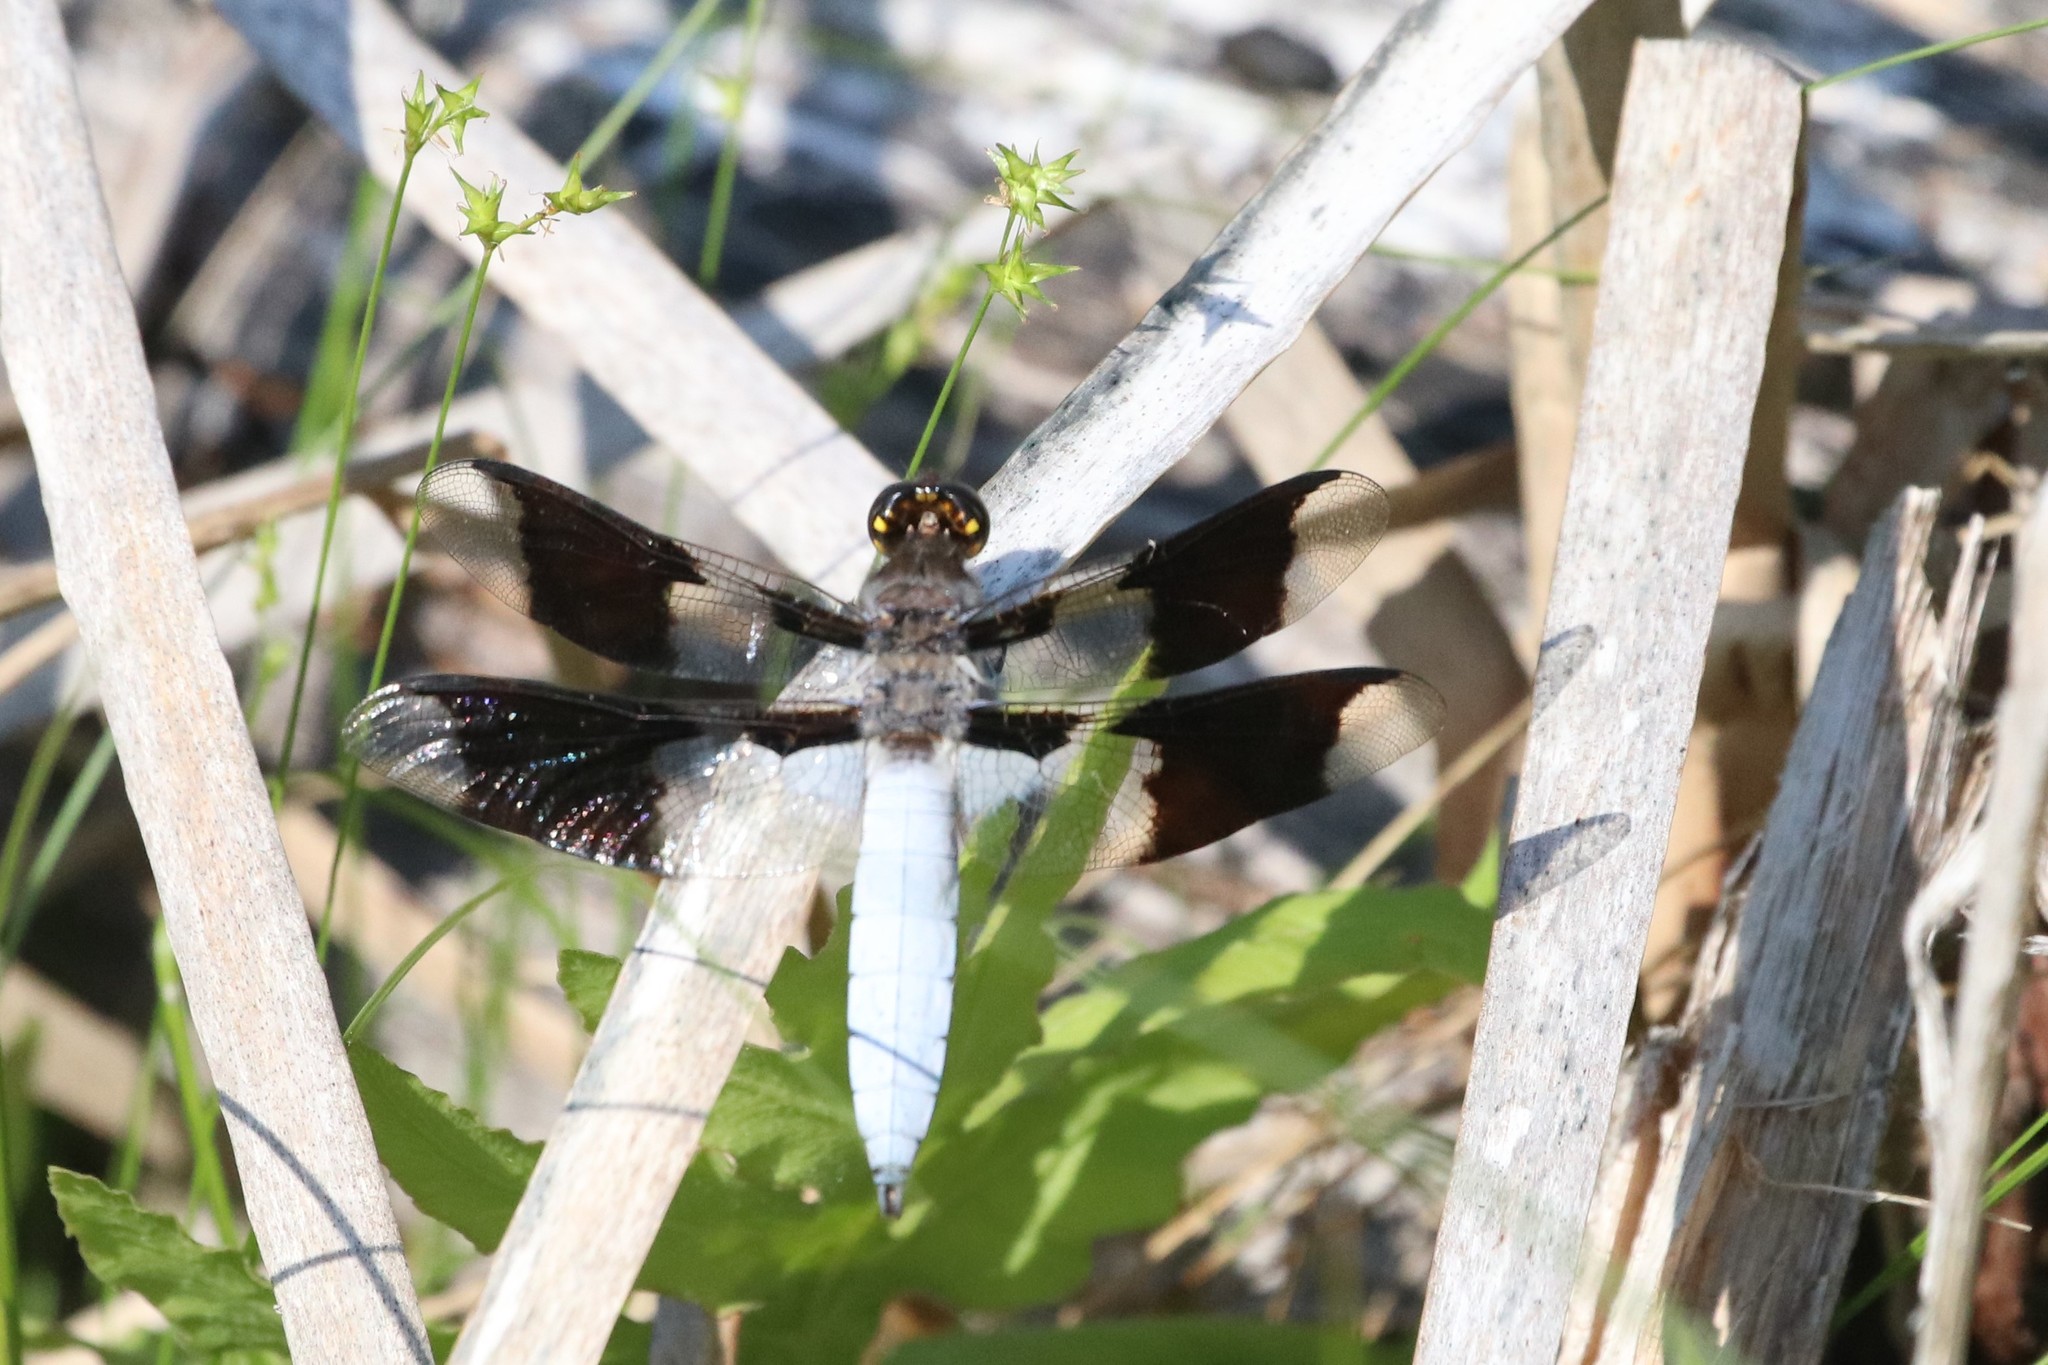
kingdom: Animalia
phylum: Arthropoda
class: Insecta
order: Odonata
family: Libellulidae
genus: Plathemis
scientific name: Plathemis lydia
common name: Common whitetail
